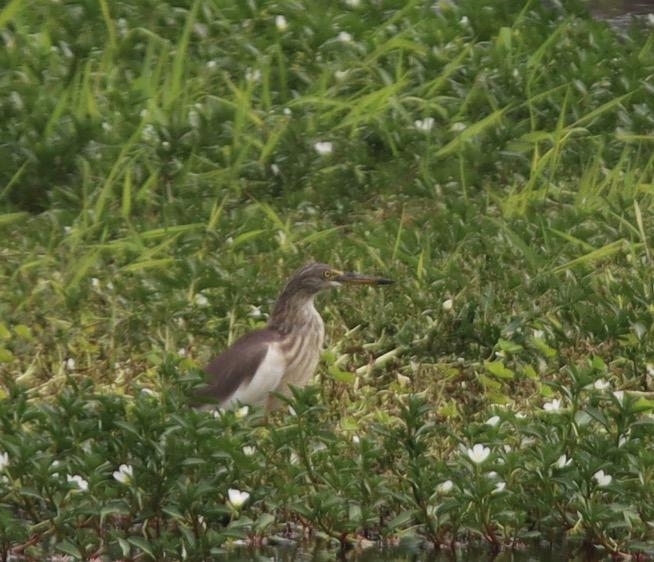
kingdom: Animalia
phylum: Chordata
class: Aves
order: Pelecaniformes
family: Ardeidae
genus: Ardeola
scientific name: Ardeola speciosa
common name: Javan pond heron
